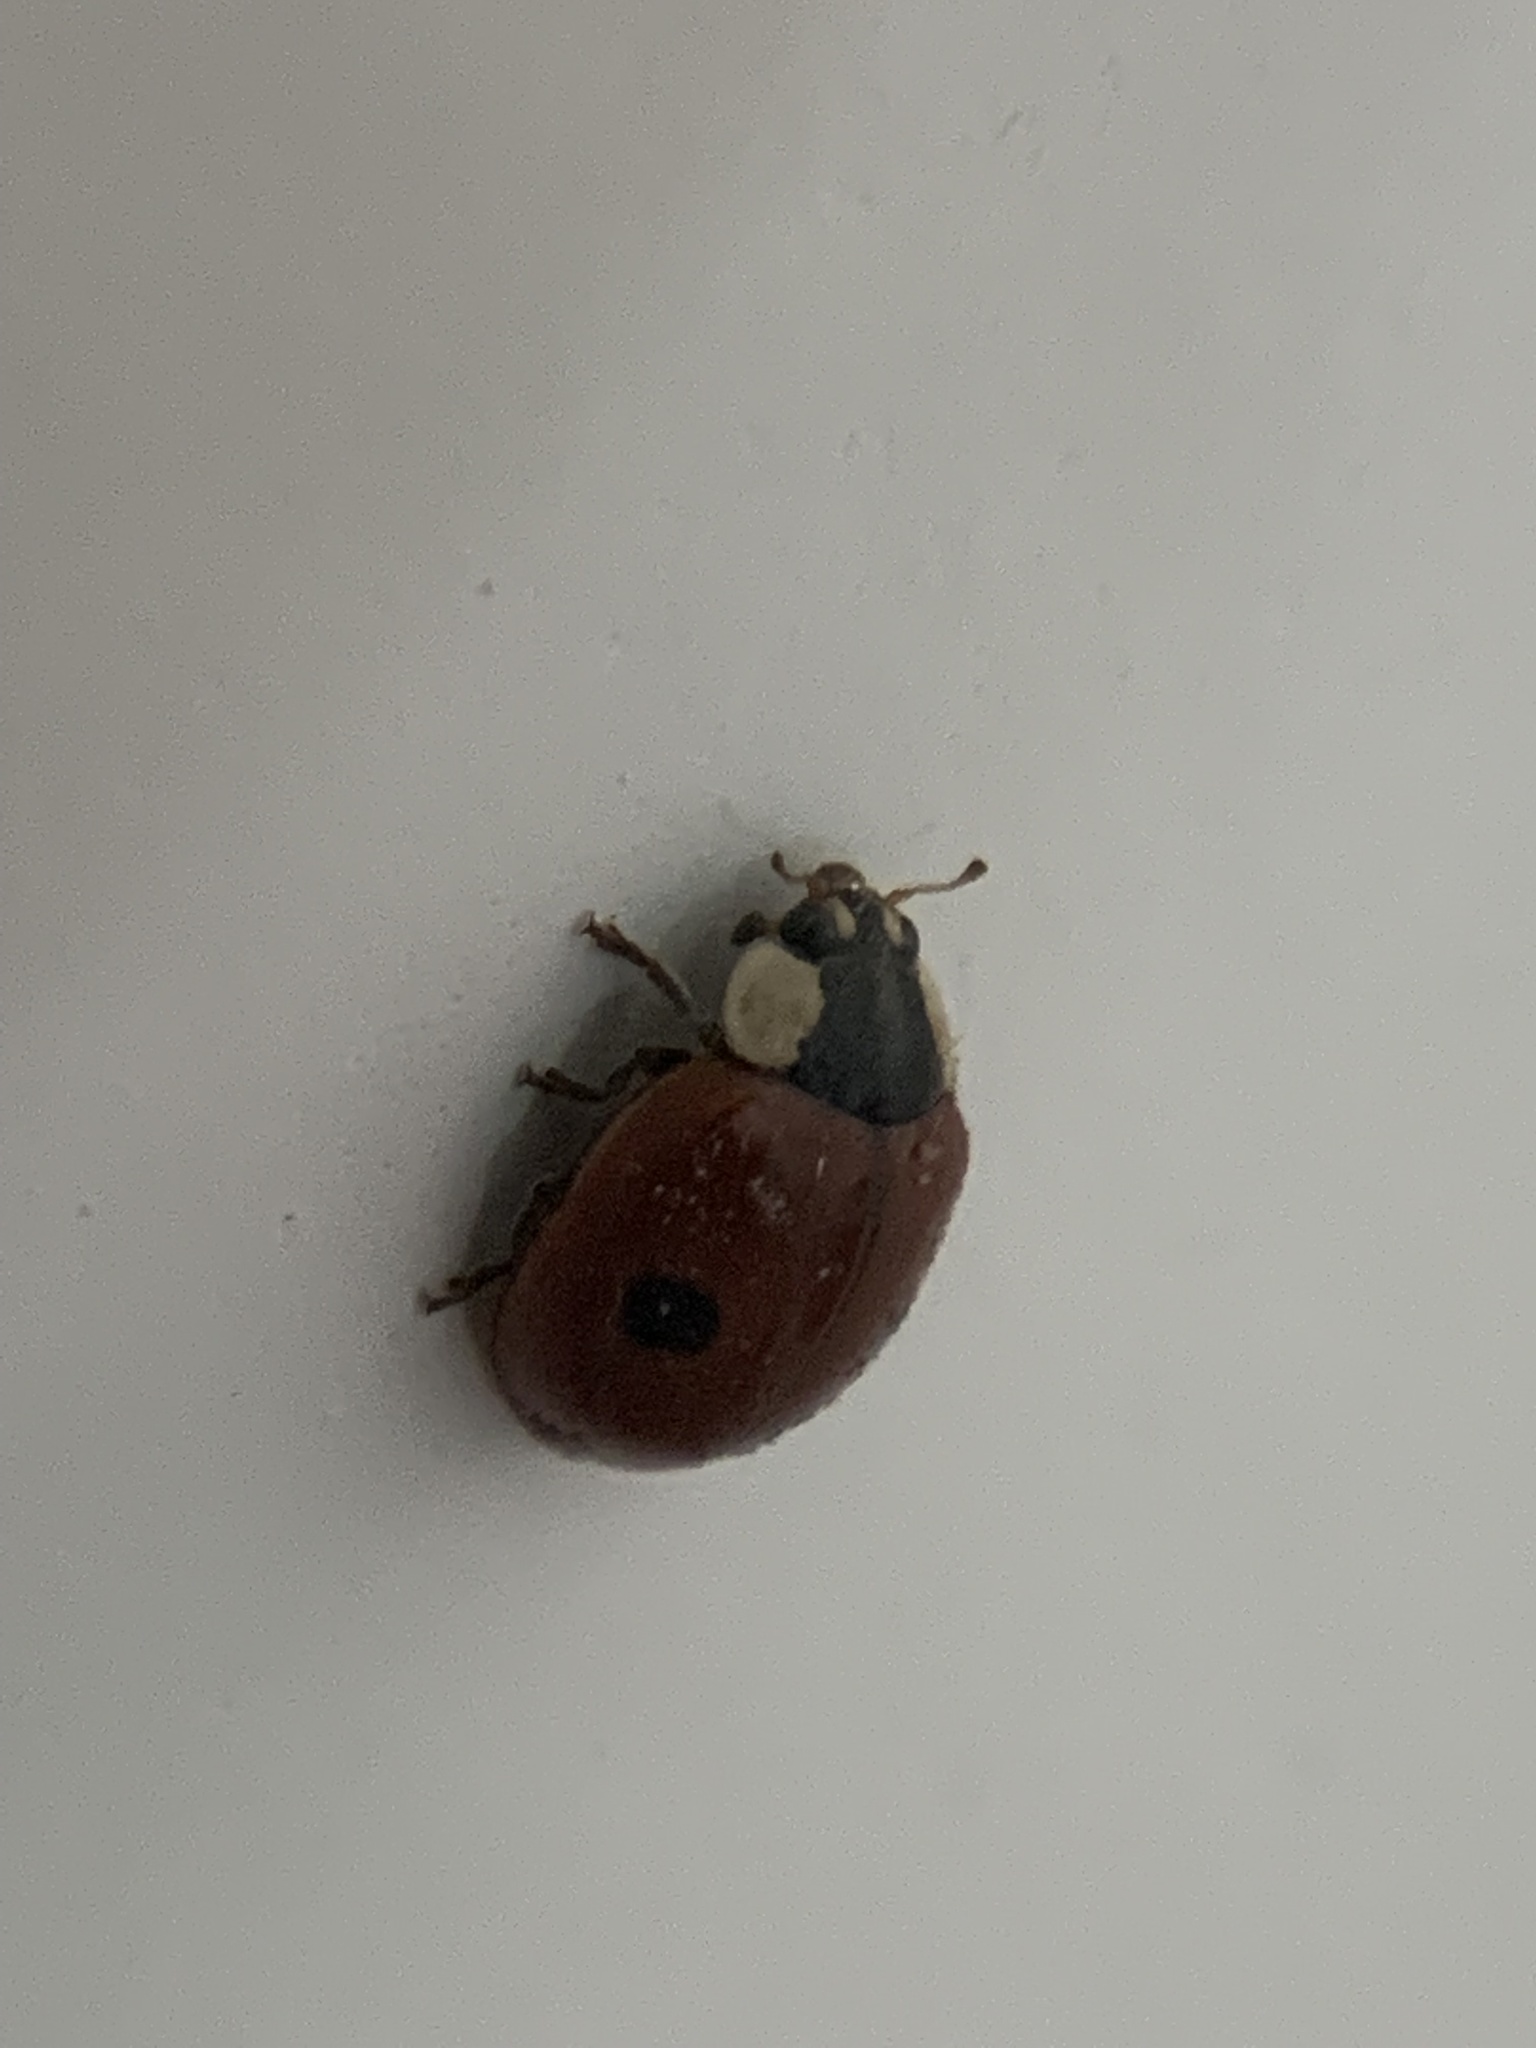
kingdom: Animalia
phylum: Arthropoda
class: Insecta
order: Coleoptera
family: Coccinellidae
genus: Adalia
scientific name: Adalia bipunctata
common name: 2-spot ladybird
